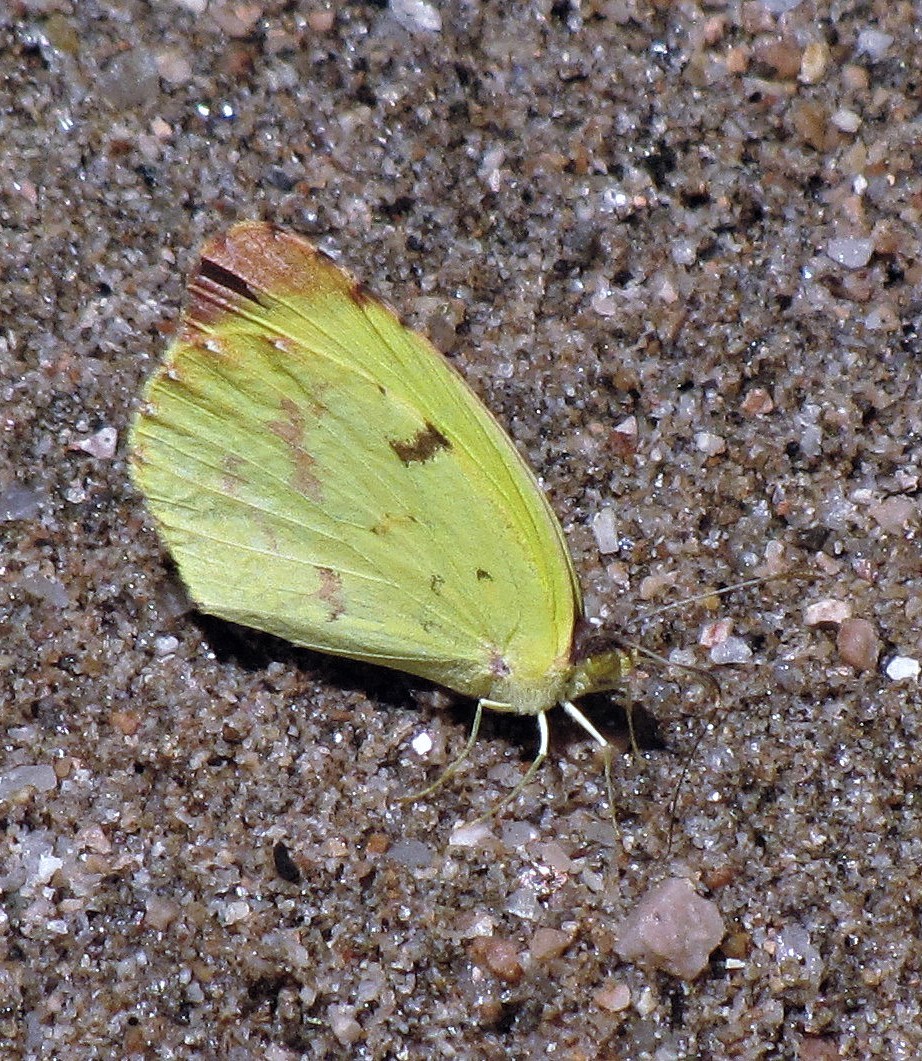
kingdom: Animalia
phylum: Arthropoda
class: Insecta
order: Lepidoptera
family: Pieridae
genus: Teriocolias
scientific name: Teriocolias
